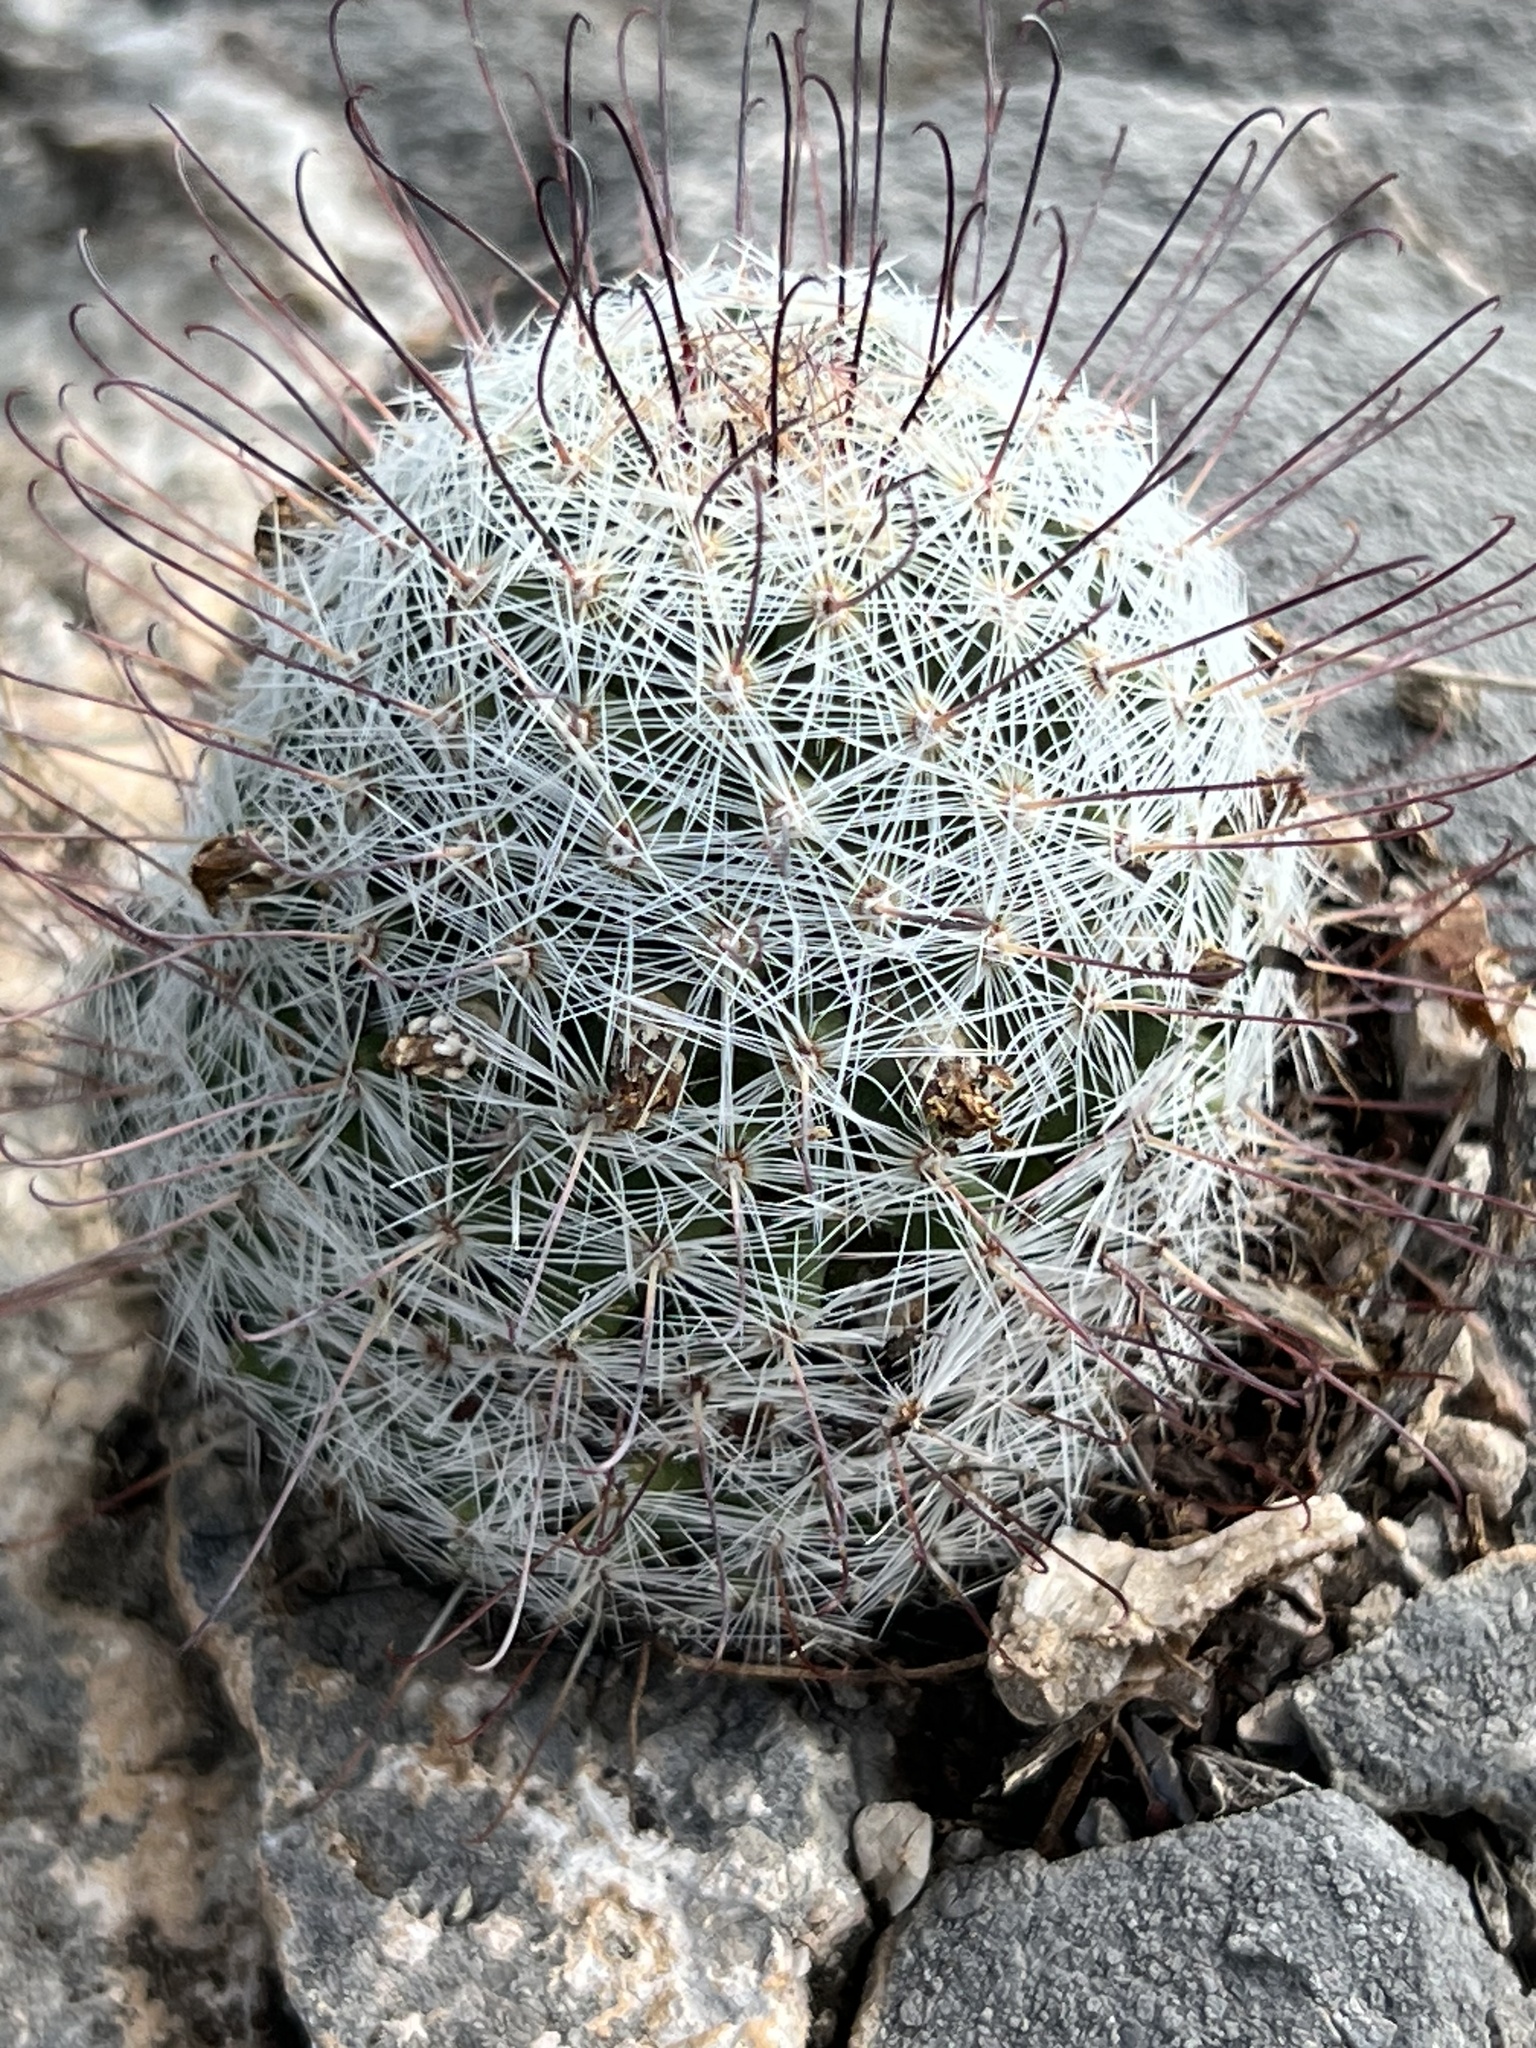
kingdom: Plantae
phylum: Tracheophyta
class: Magnoliopsida
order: Caryophyllales
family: Cactaceae
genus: Cochemiea
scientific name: Cochemiea grahamii
